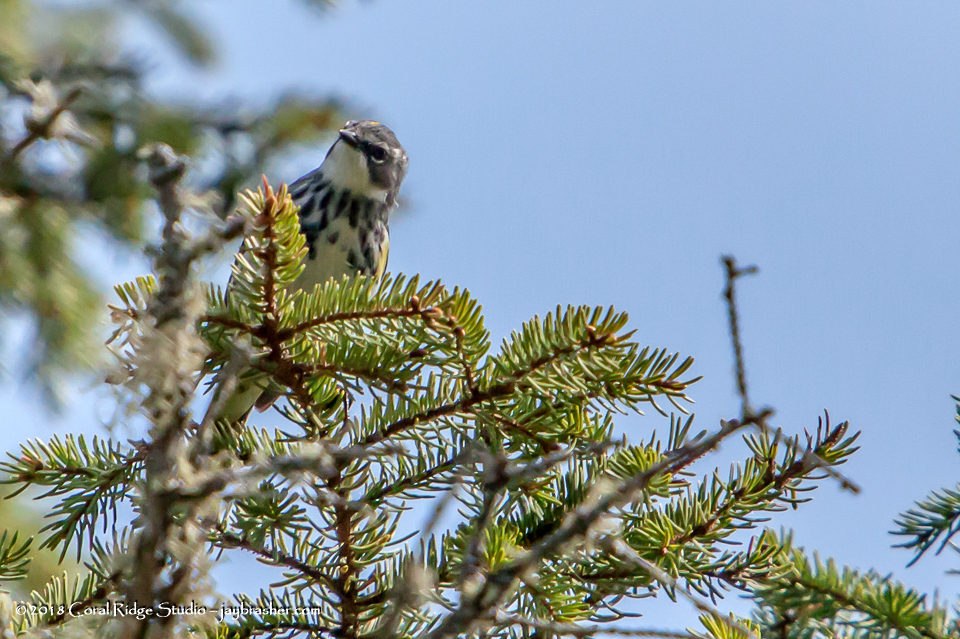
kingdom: Animalia
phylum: Chordata
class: Aves
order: Passeriformes
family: Parulidae
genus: Setophaga
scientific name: Setophaga coronata
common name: Myrtle warbler
